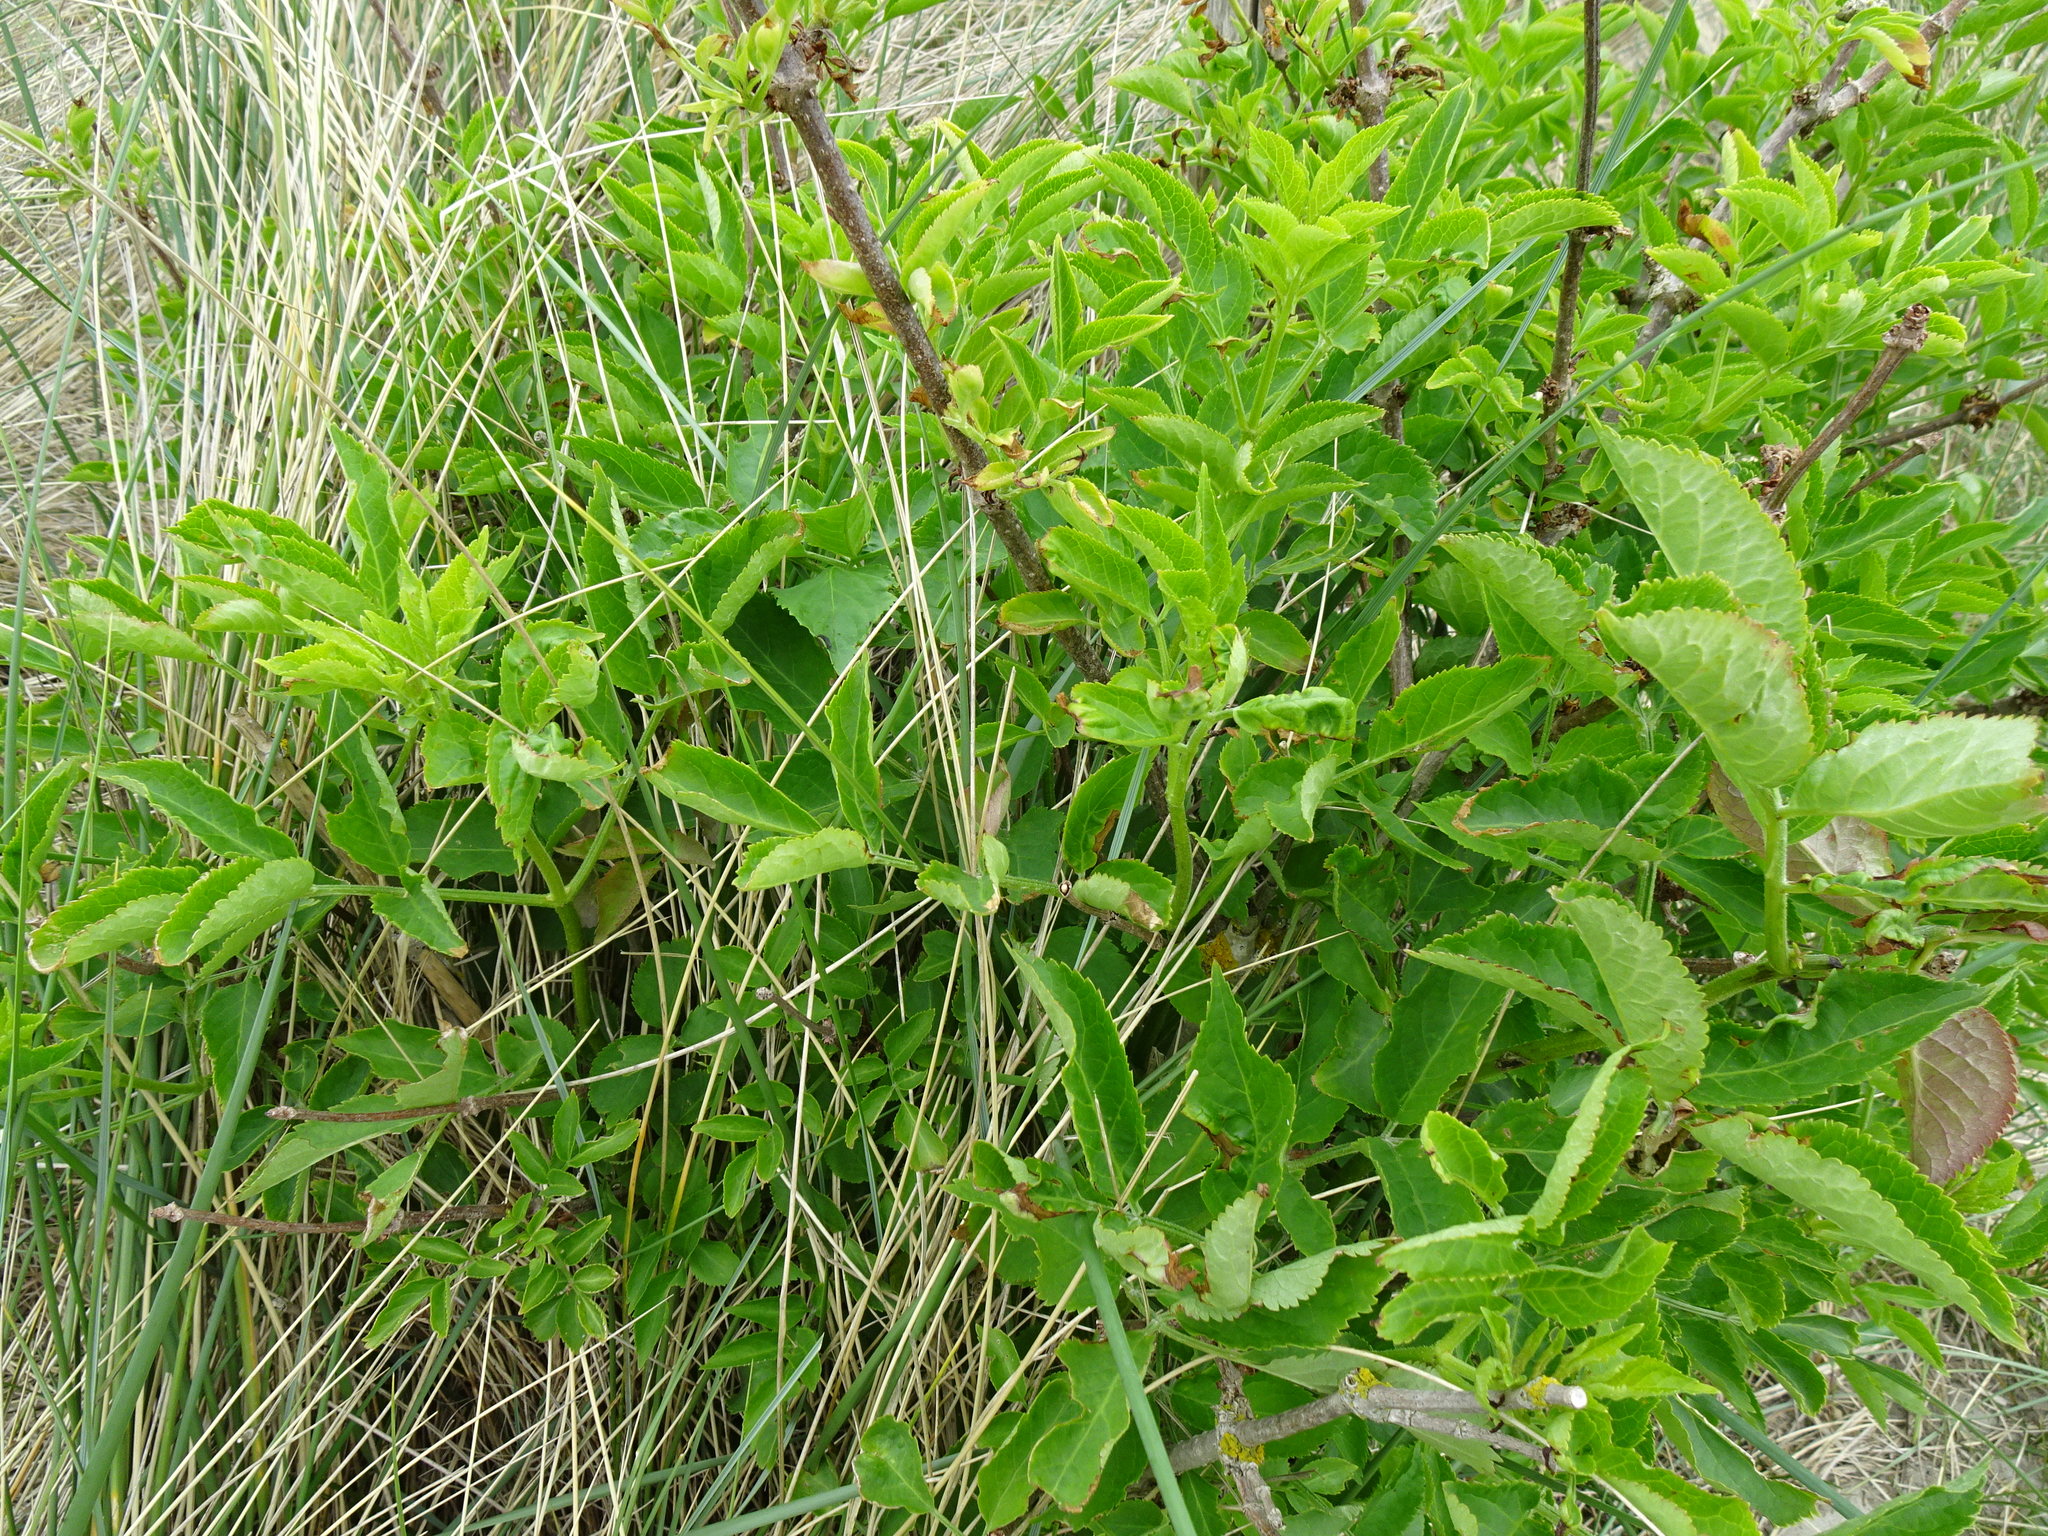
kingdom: Plantae
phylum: Tracheophyta
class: Magnoliopsida
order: Dipsacales
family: Viburnaceae
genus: Sambucus
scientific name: Sambucus nigra
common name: Elder
